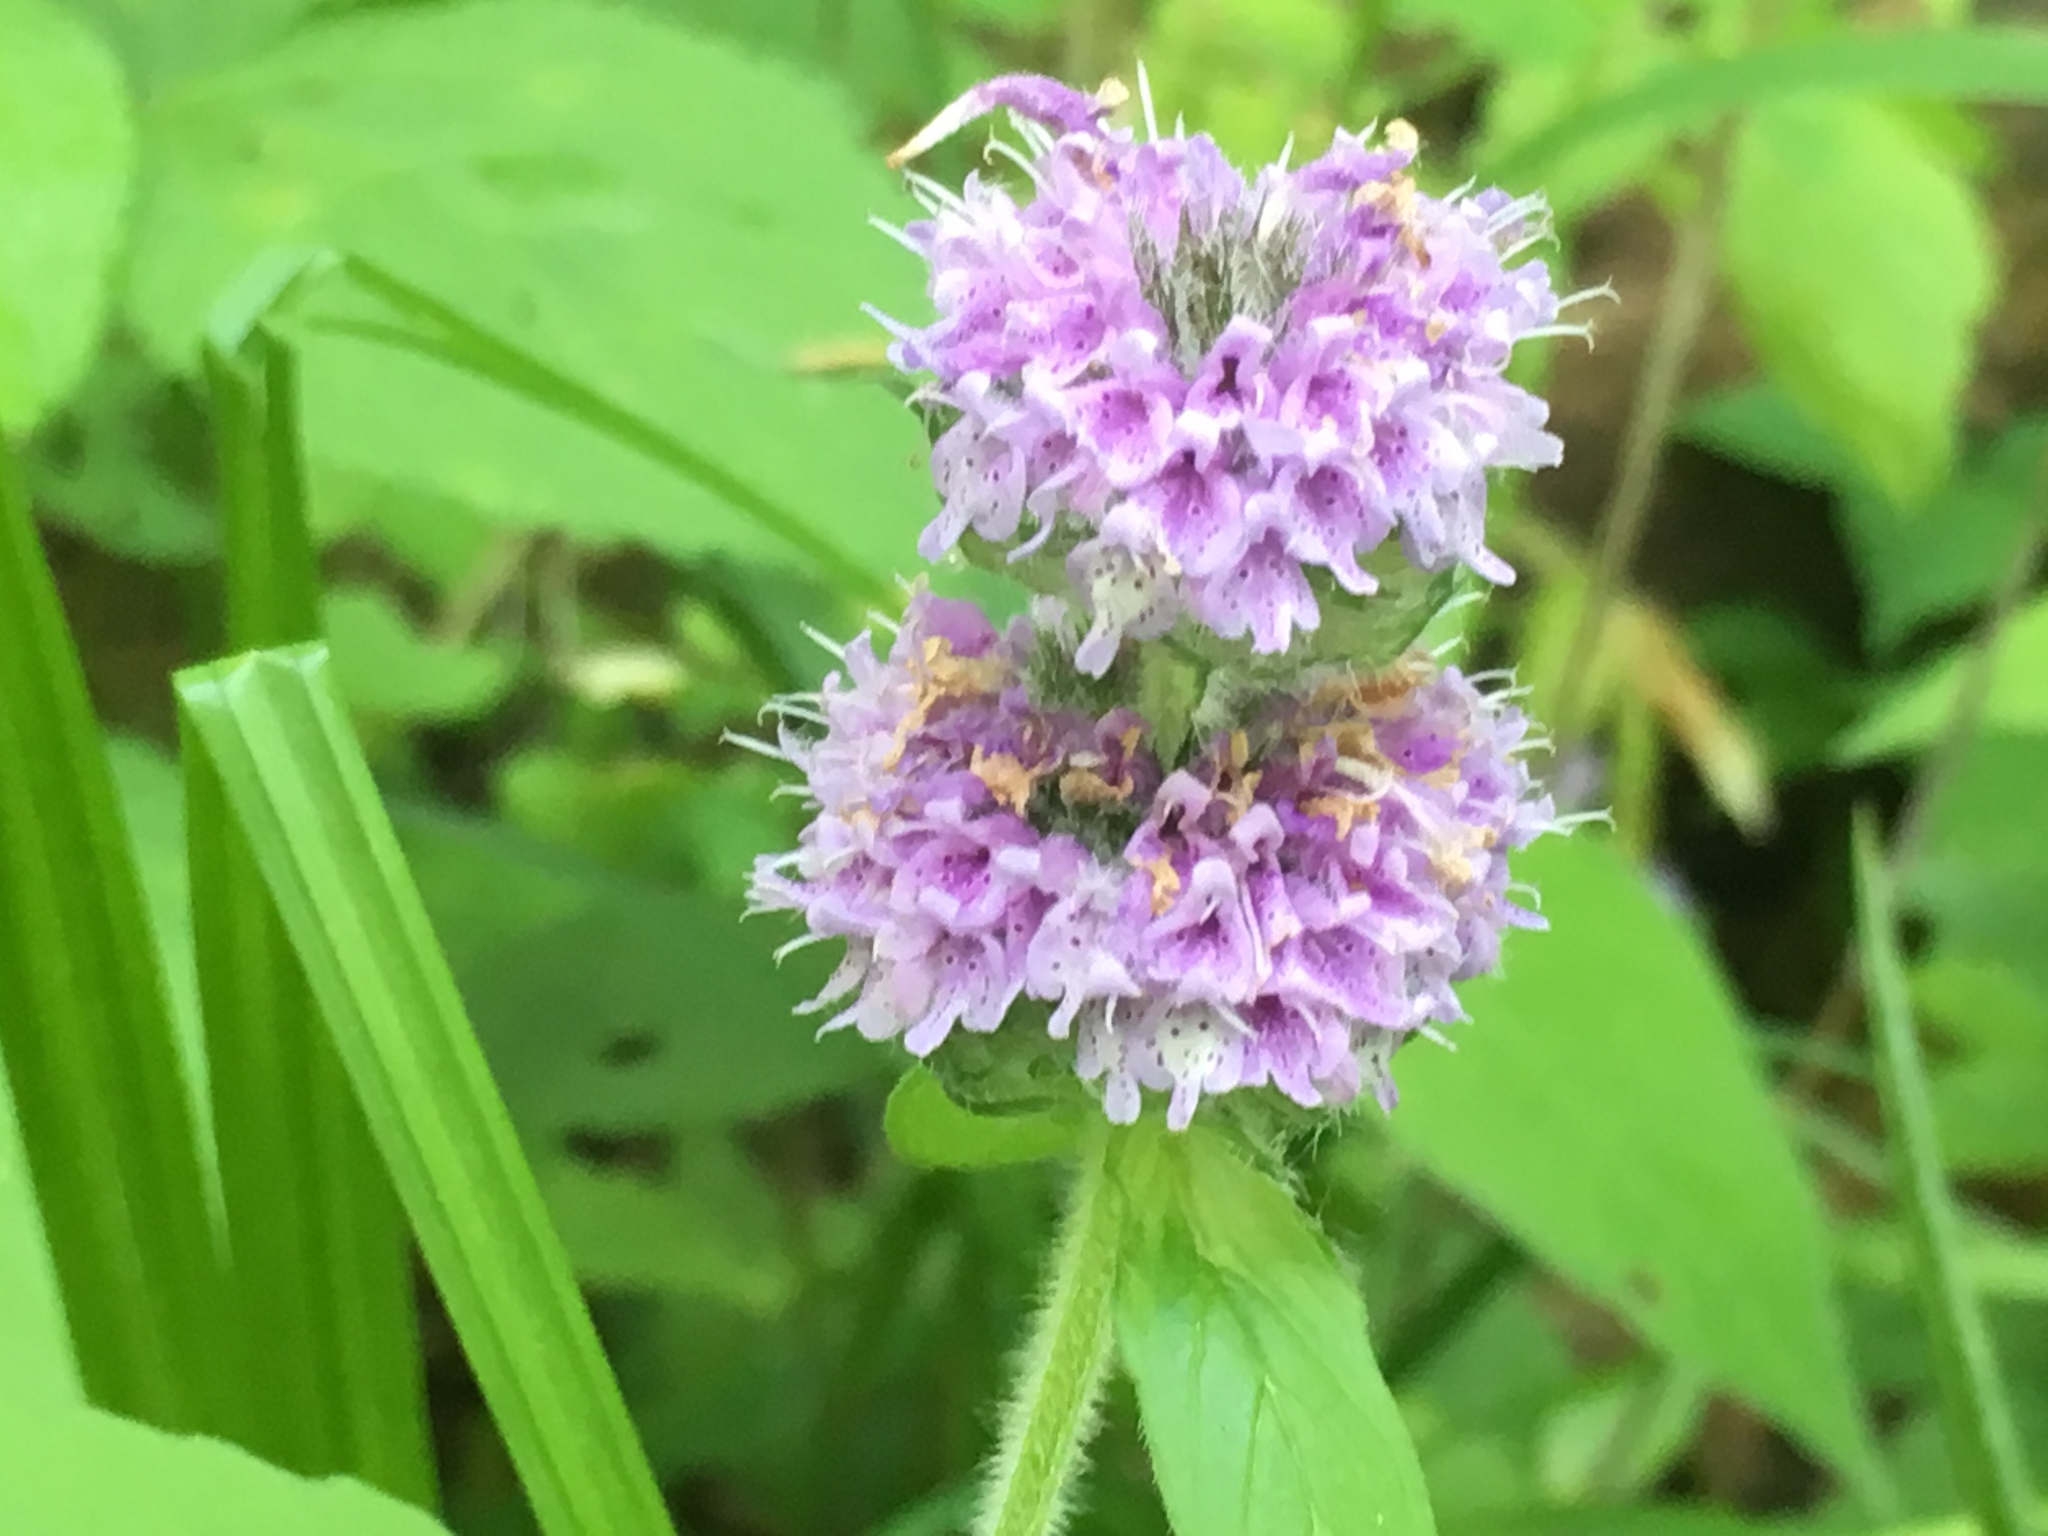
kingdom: Plantae
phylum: Tracheophyta
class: Magnoliopsida
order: Lamiales
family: Lamiaceae
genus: Blephilia
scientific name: Blephilia ciliata
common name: Downy blephilia
